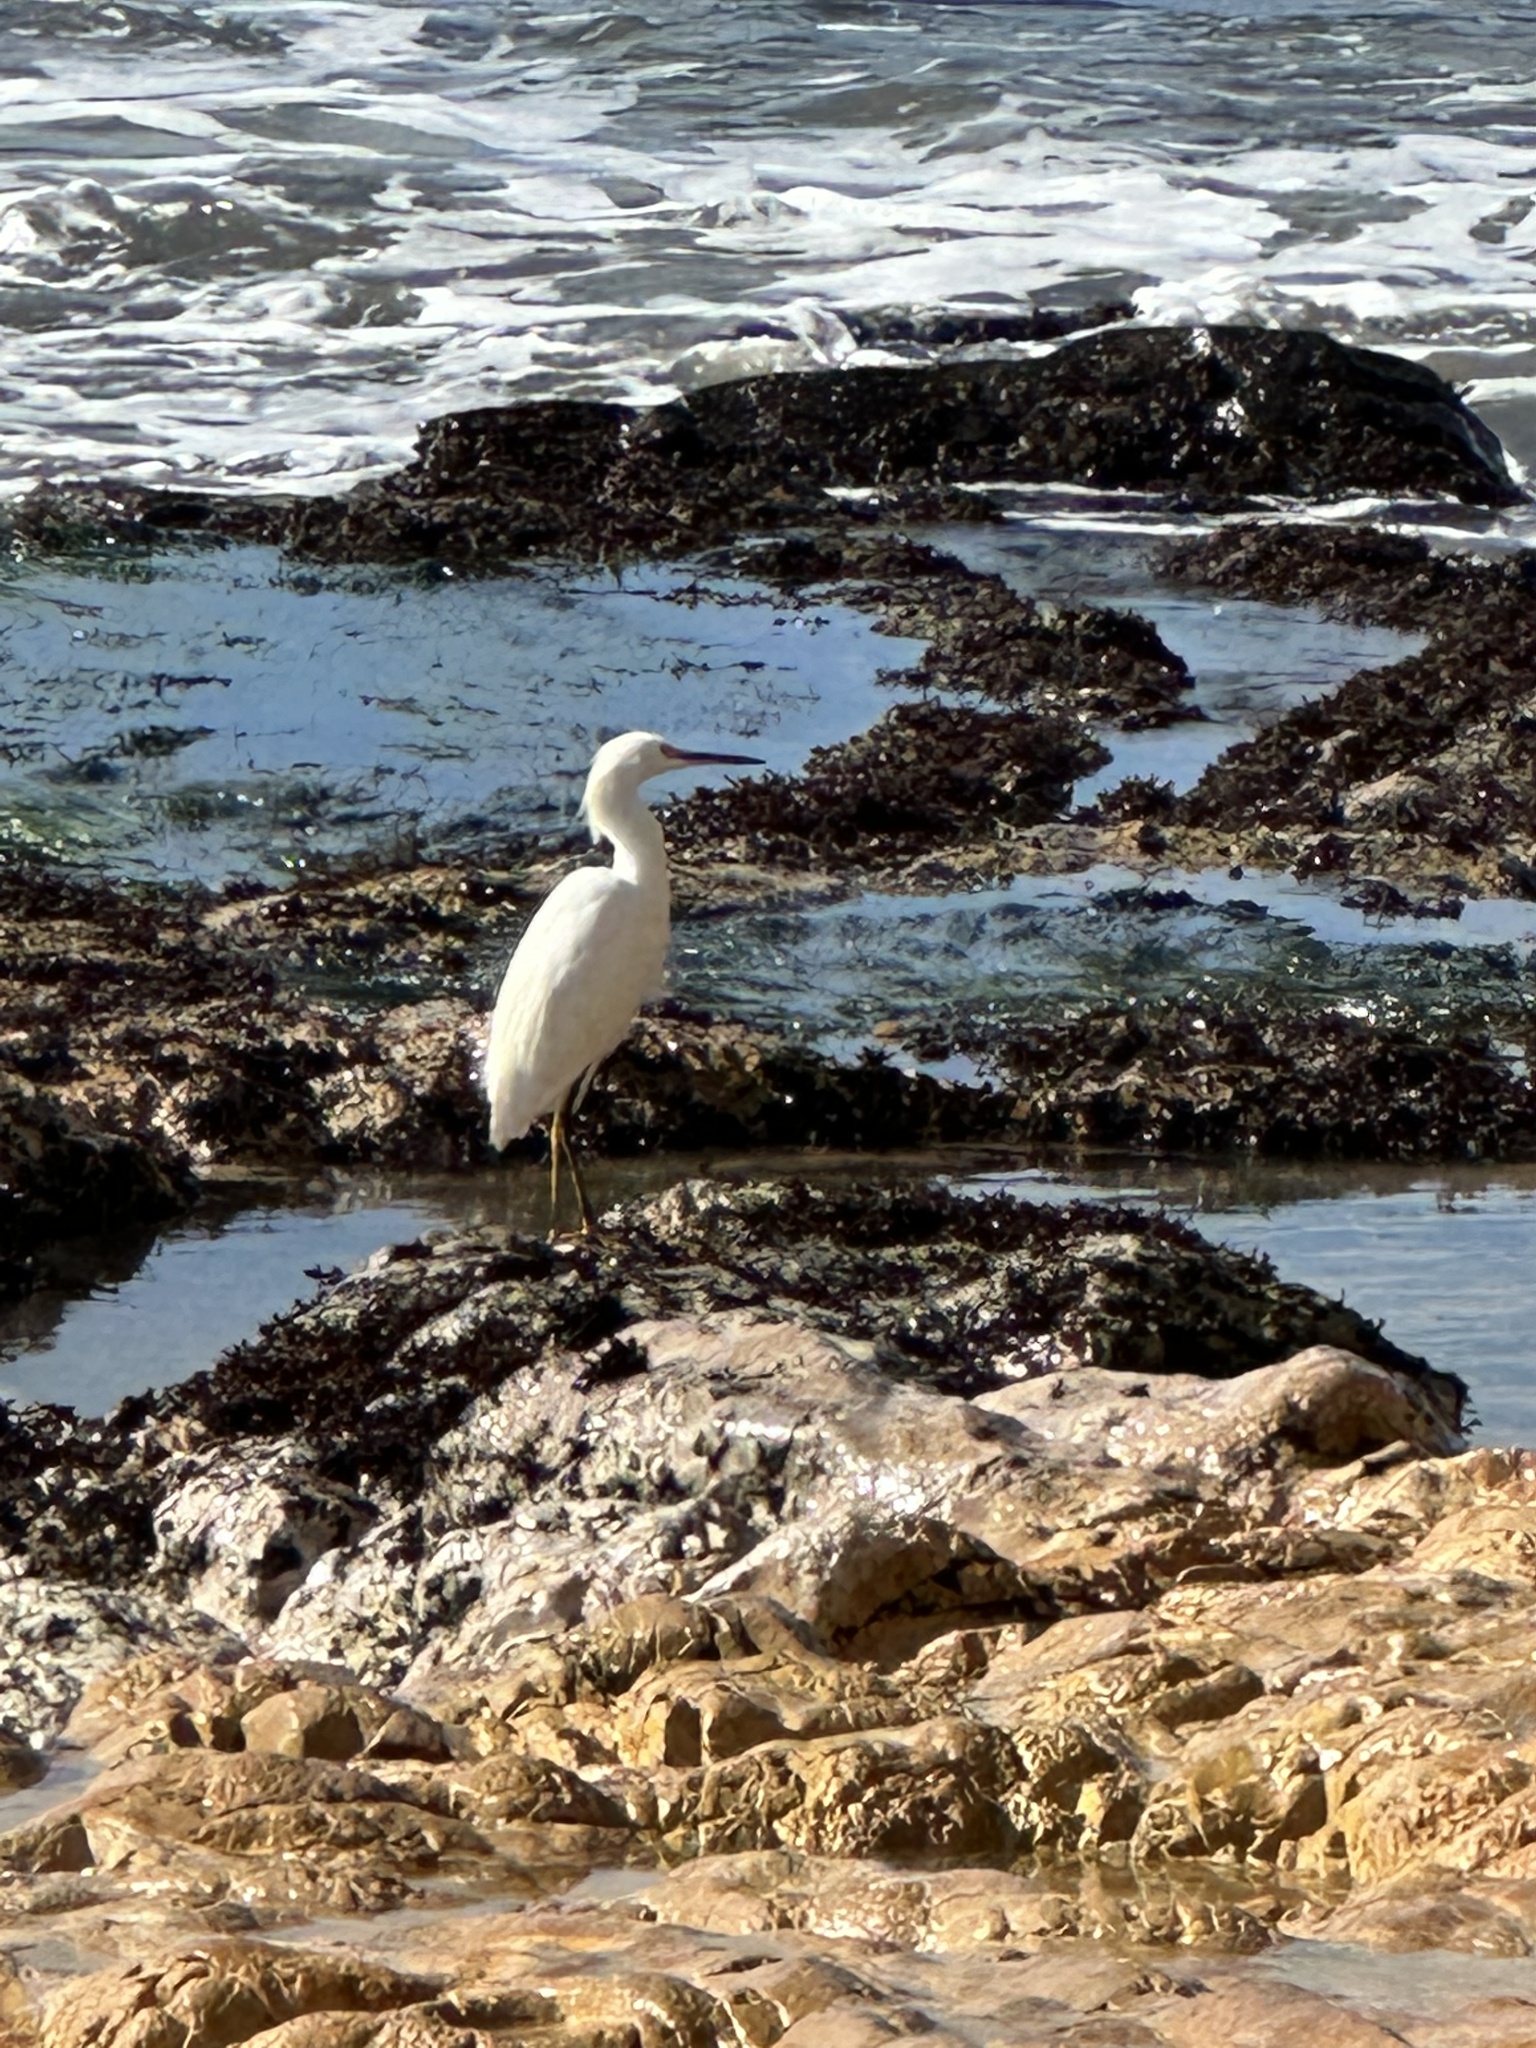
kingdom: Animalia
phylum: Chordata
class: Aves
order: Pelecaniformes
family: Ardeidae
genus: Egretta
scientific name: Egretta thula
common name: Snowy egret
